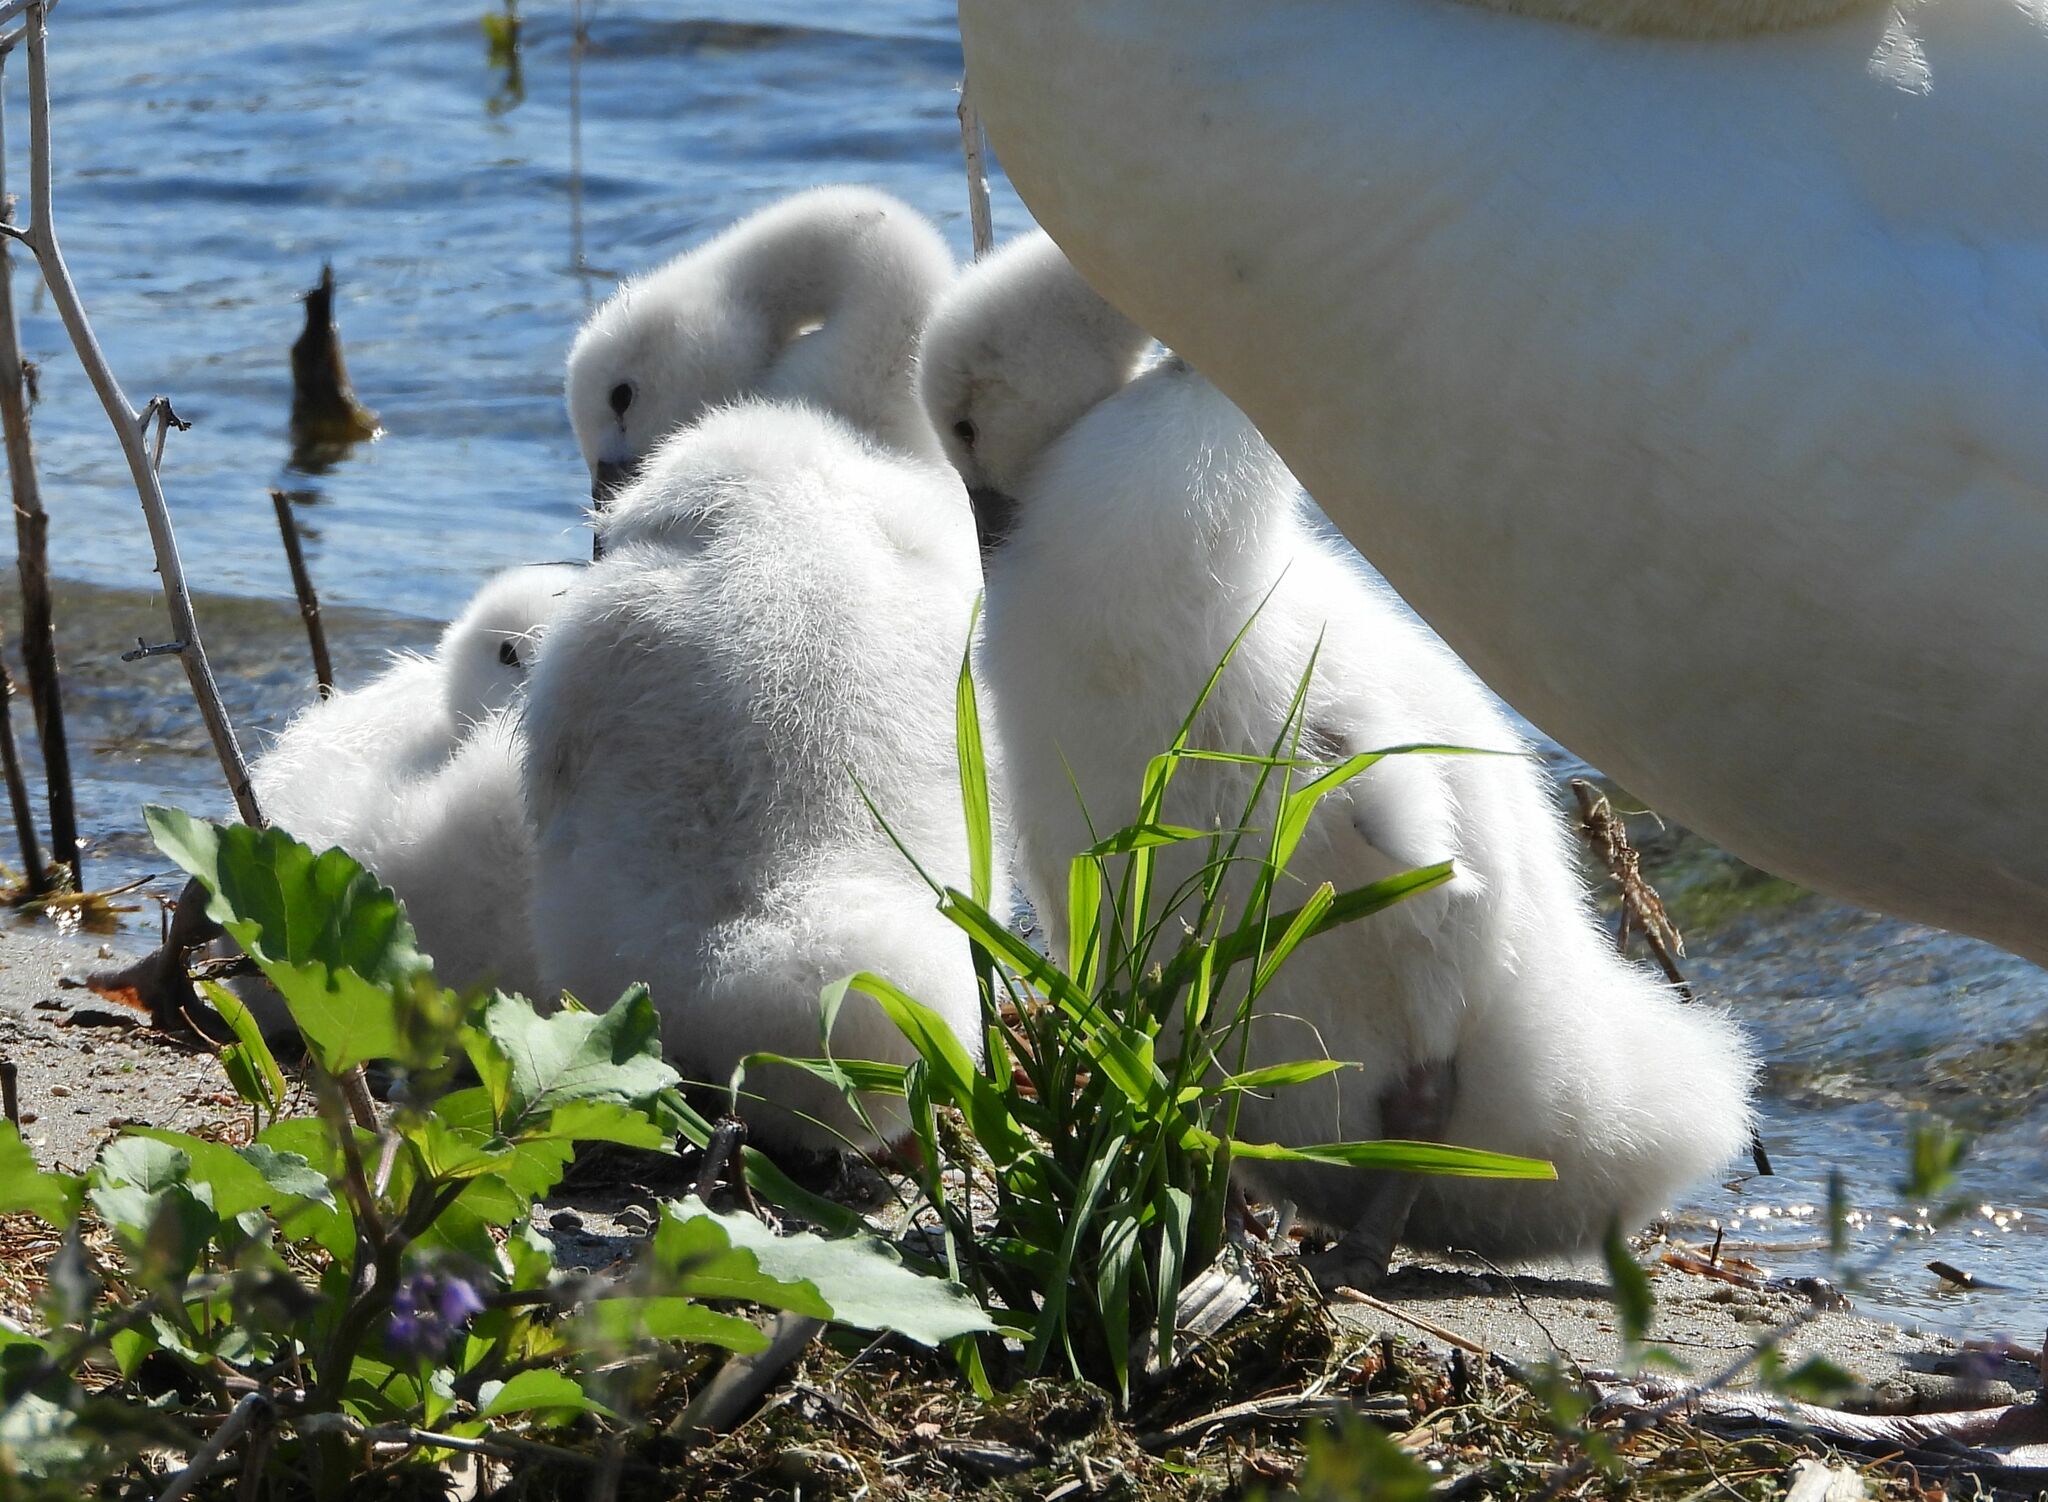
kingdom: Animalia
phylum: Chordata
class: Aves
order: Anseriformes
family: Anatidae
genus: Cygnus
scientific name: Cygnus olor
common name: Mute swan
